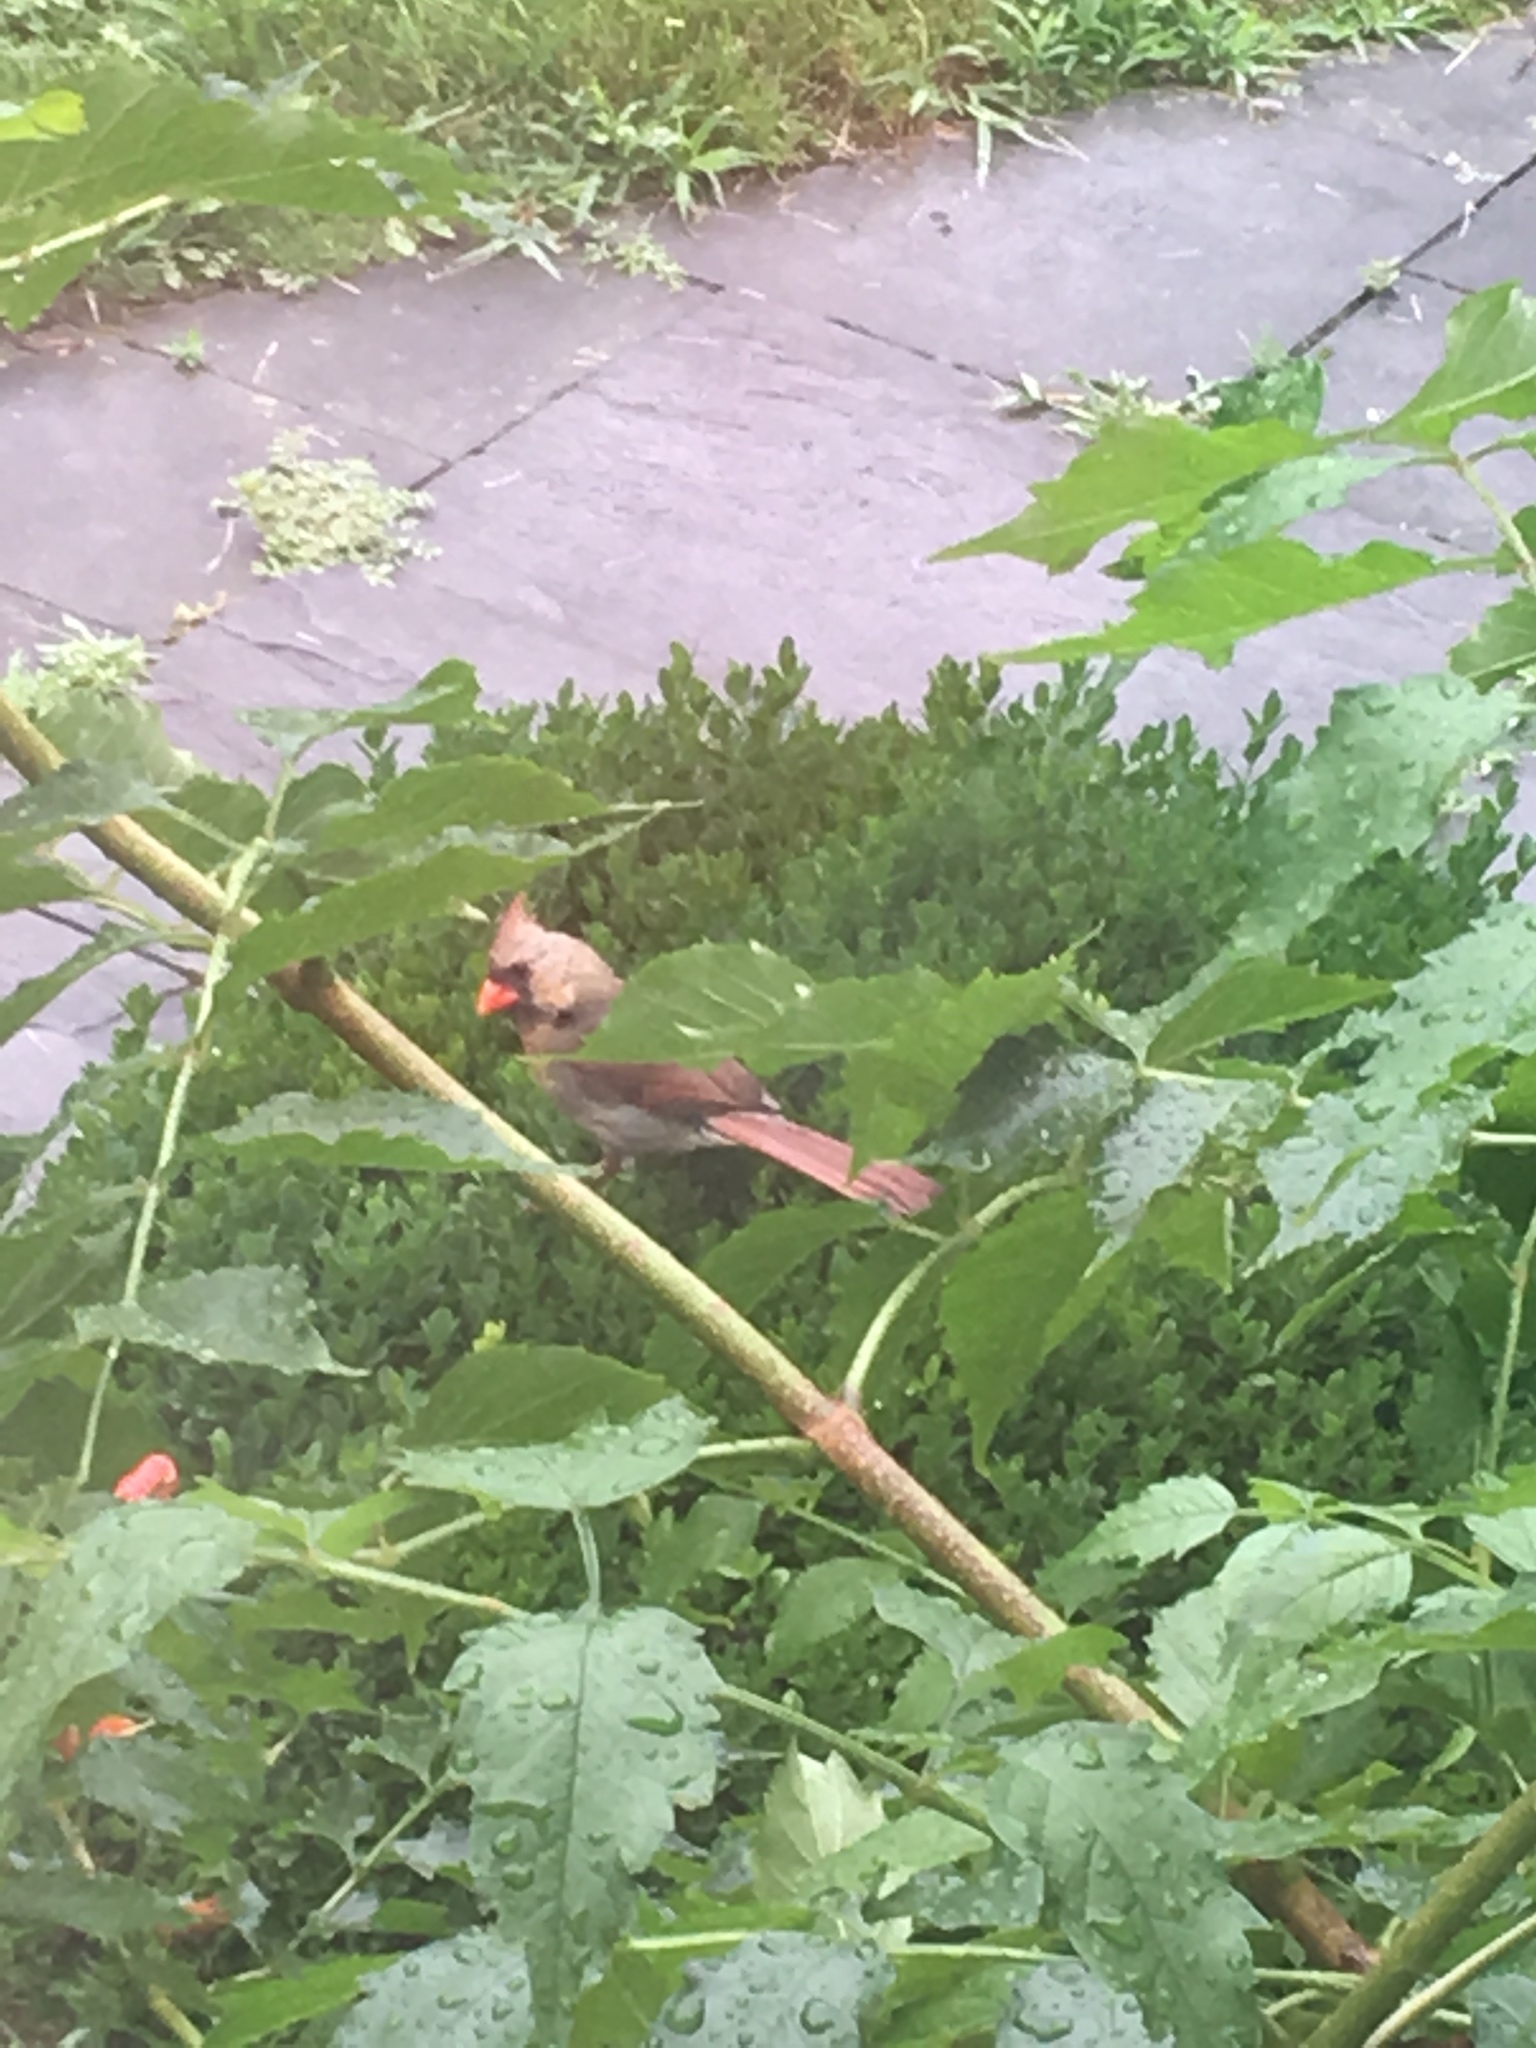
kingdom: Animalia
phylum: Chordata
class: Aves
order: Passeriformes
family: Cardinalidae
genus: Cardinalis
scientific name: Cardinalis cardinalis
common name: Northern cardinal
